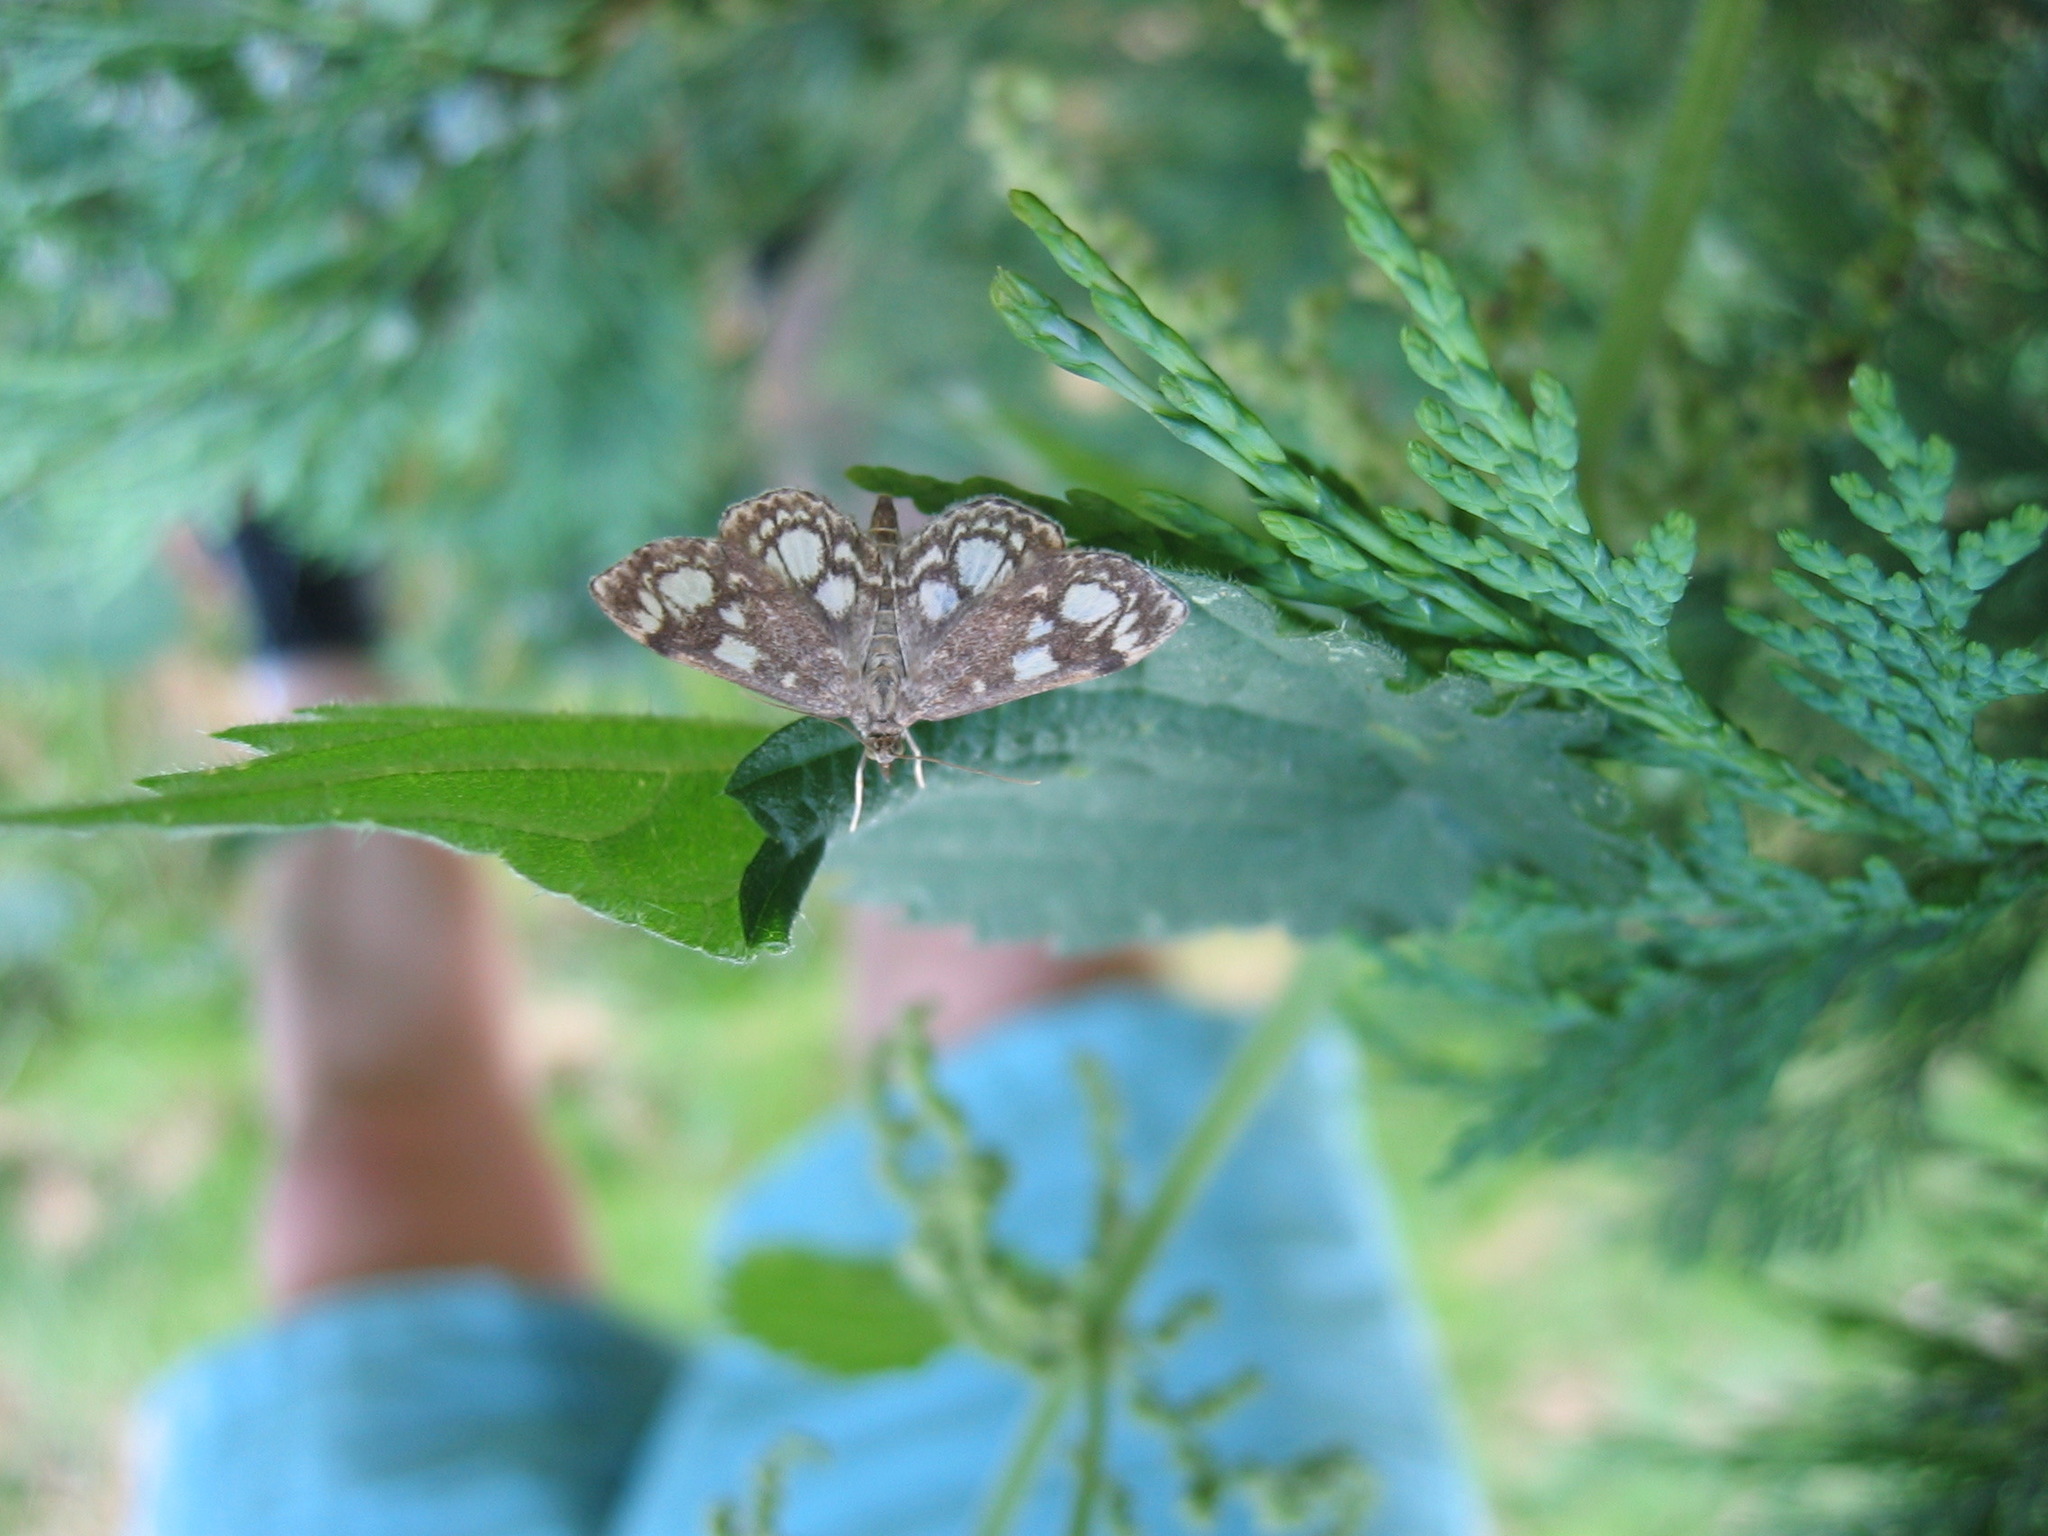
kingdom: Animalia
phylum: Arthropoda
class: Insecta
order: Lepidoptera
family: Crambidae
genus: Anania
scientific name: Anania coronata
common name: Elder pearl
